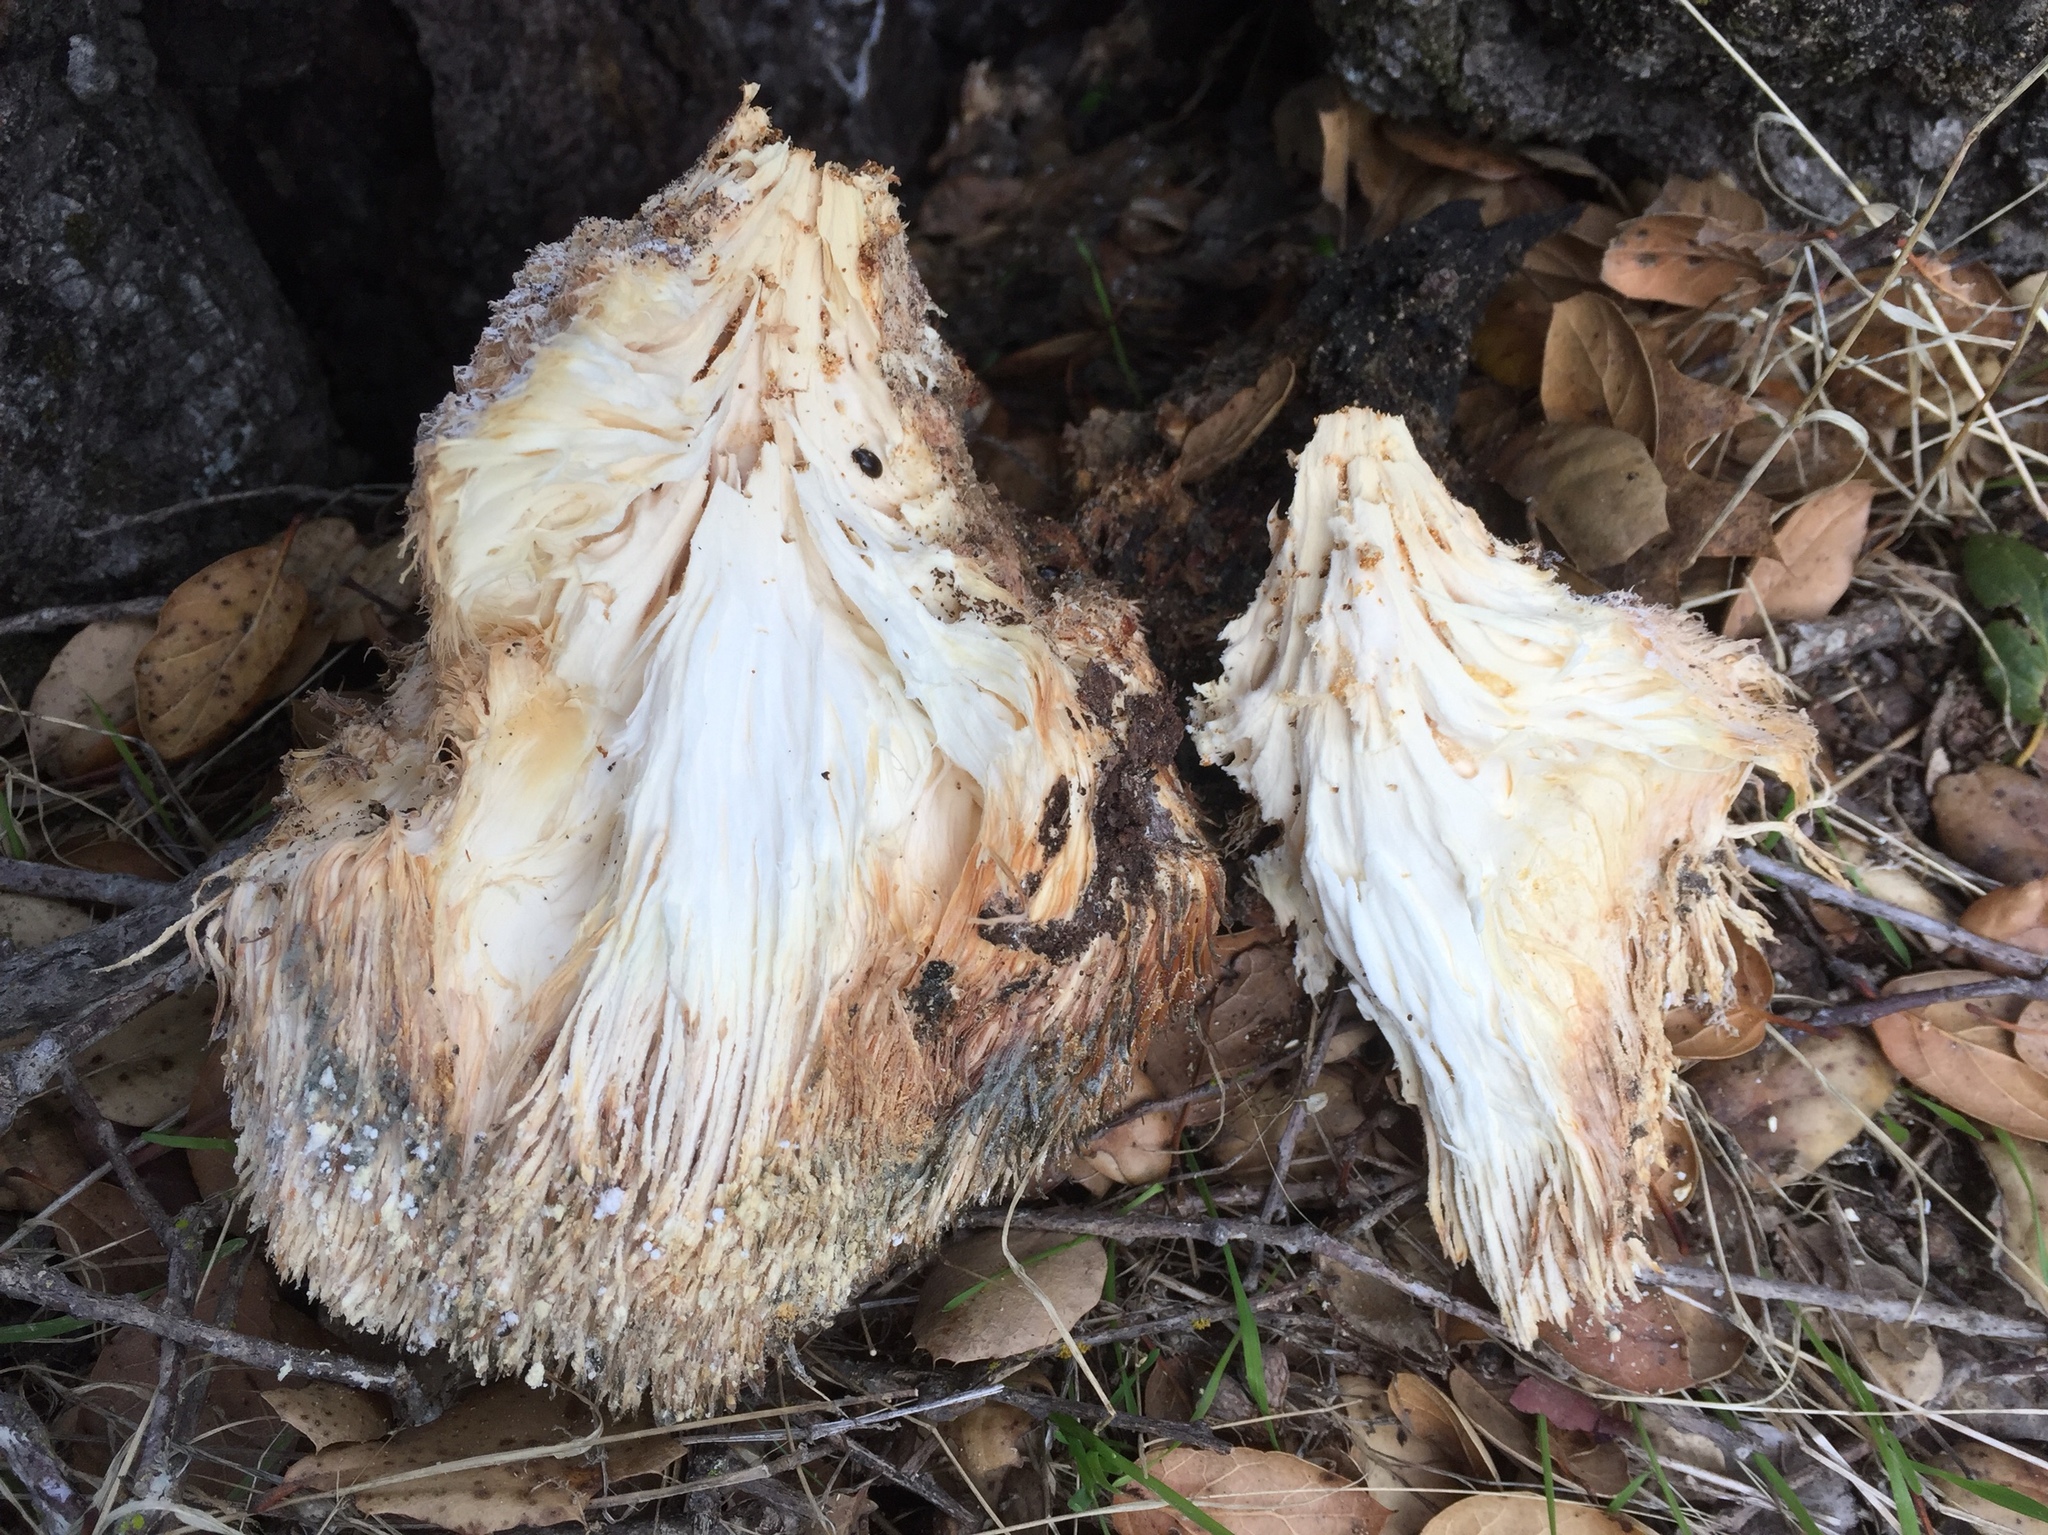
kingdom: Fungi
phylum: Basidiomycota
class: Agaricomycetes
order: Russulales
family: Hericiaceae
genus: Hericium
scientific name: Hericium erinaceus
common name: Bearded tooth
